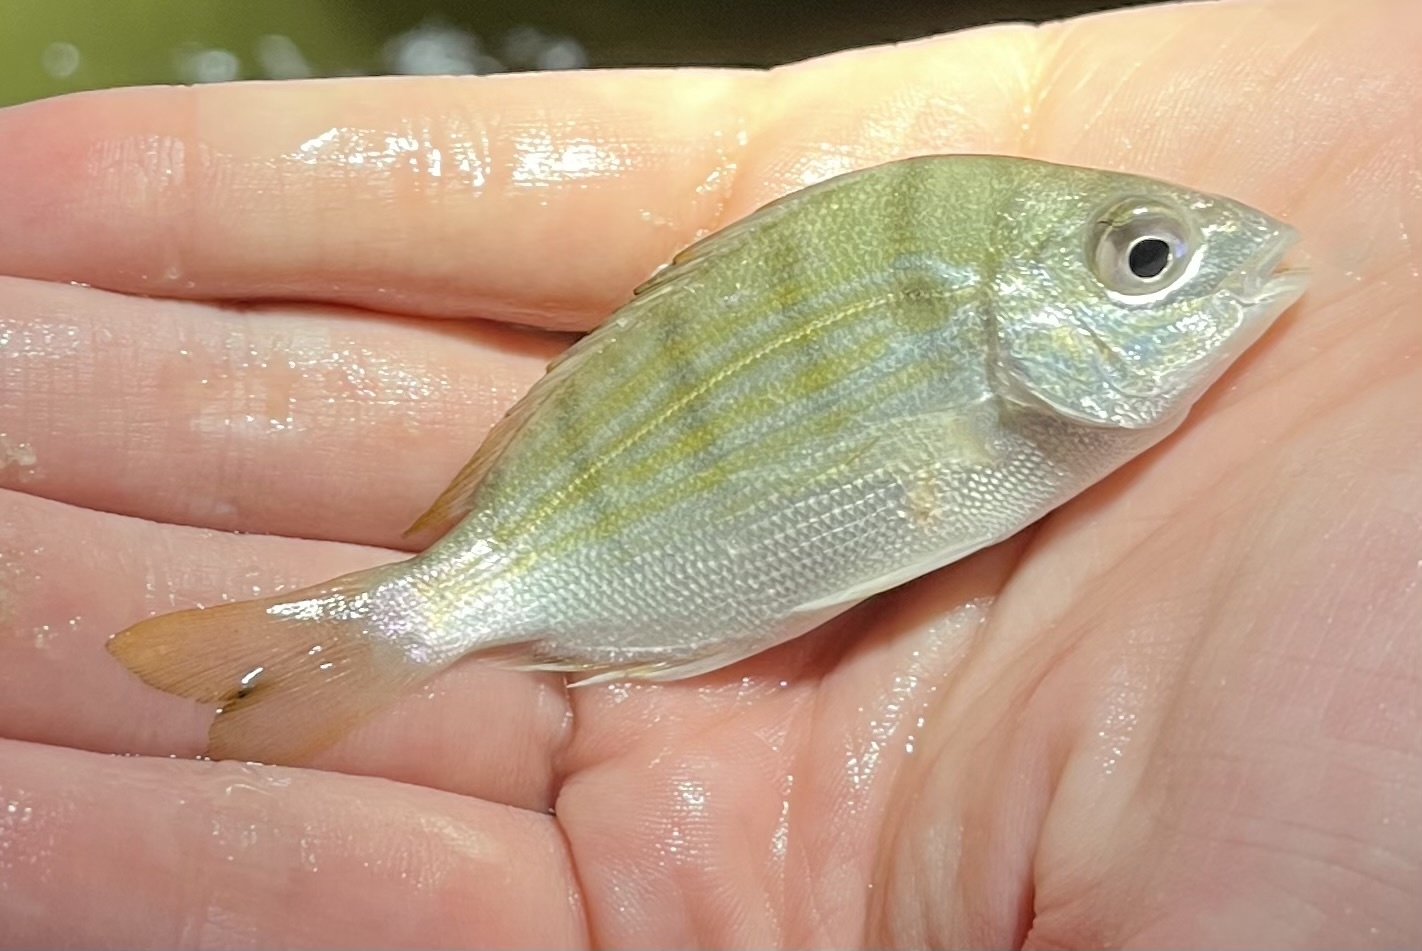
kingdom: Animalia
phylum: Chordata
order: Perciformes
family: Sparidae
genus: Lagodon
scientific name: Lagodon rhomboides
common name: Pinfish
